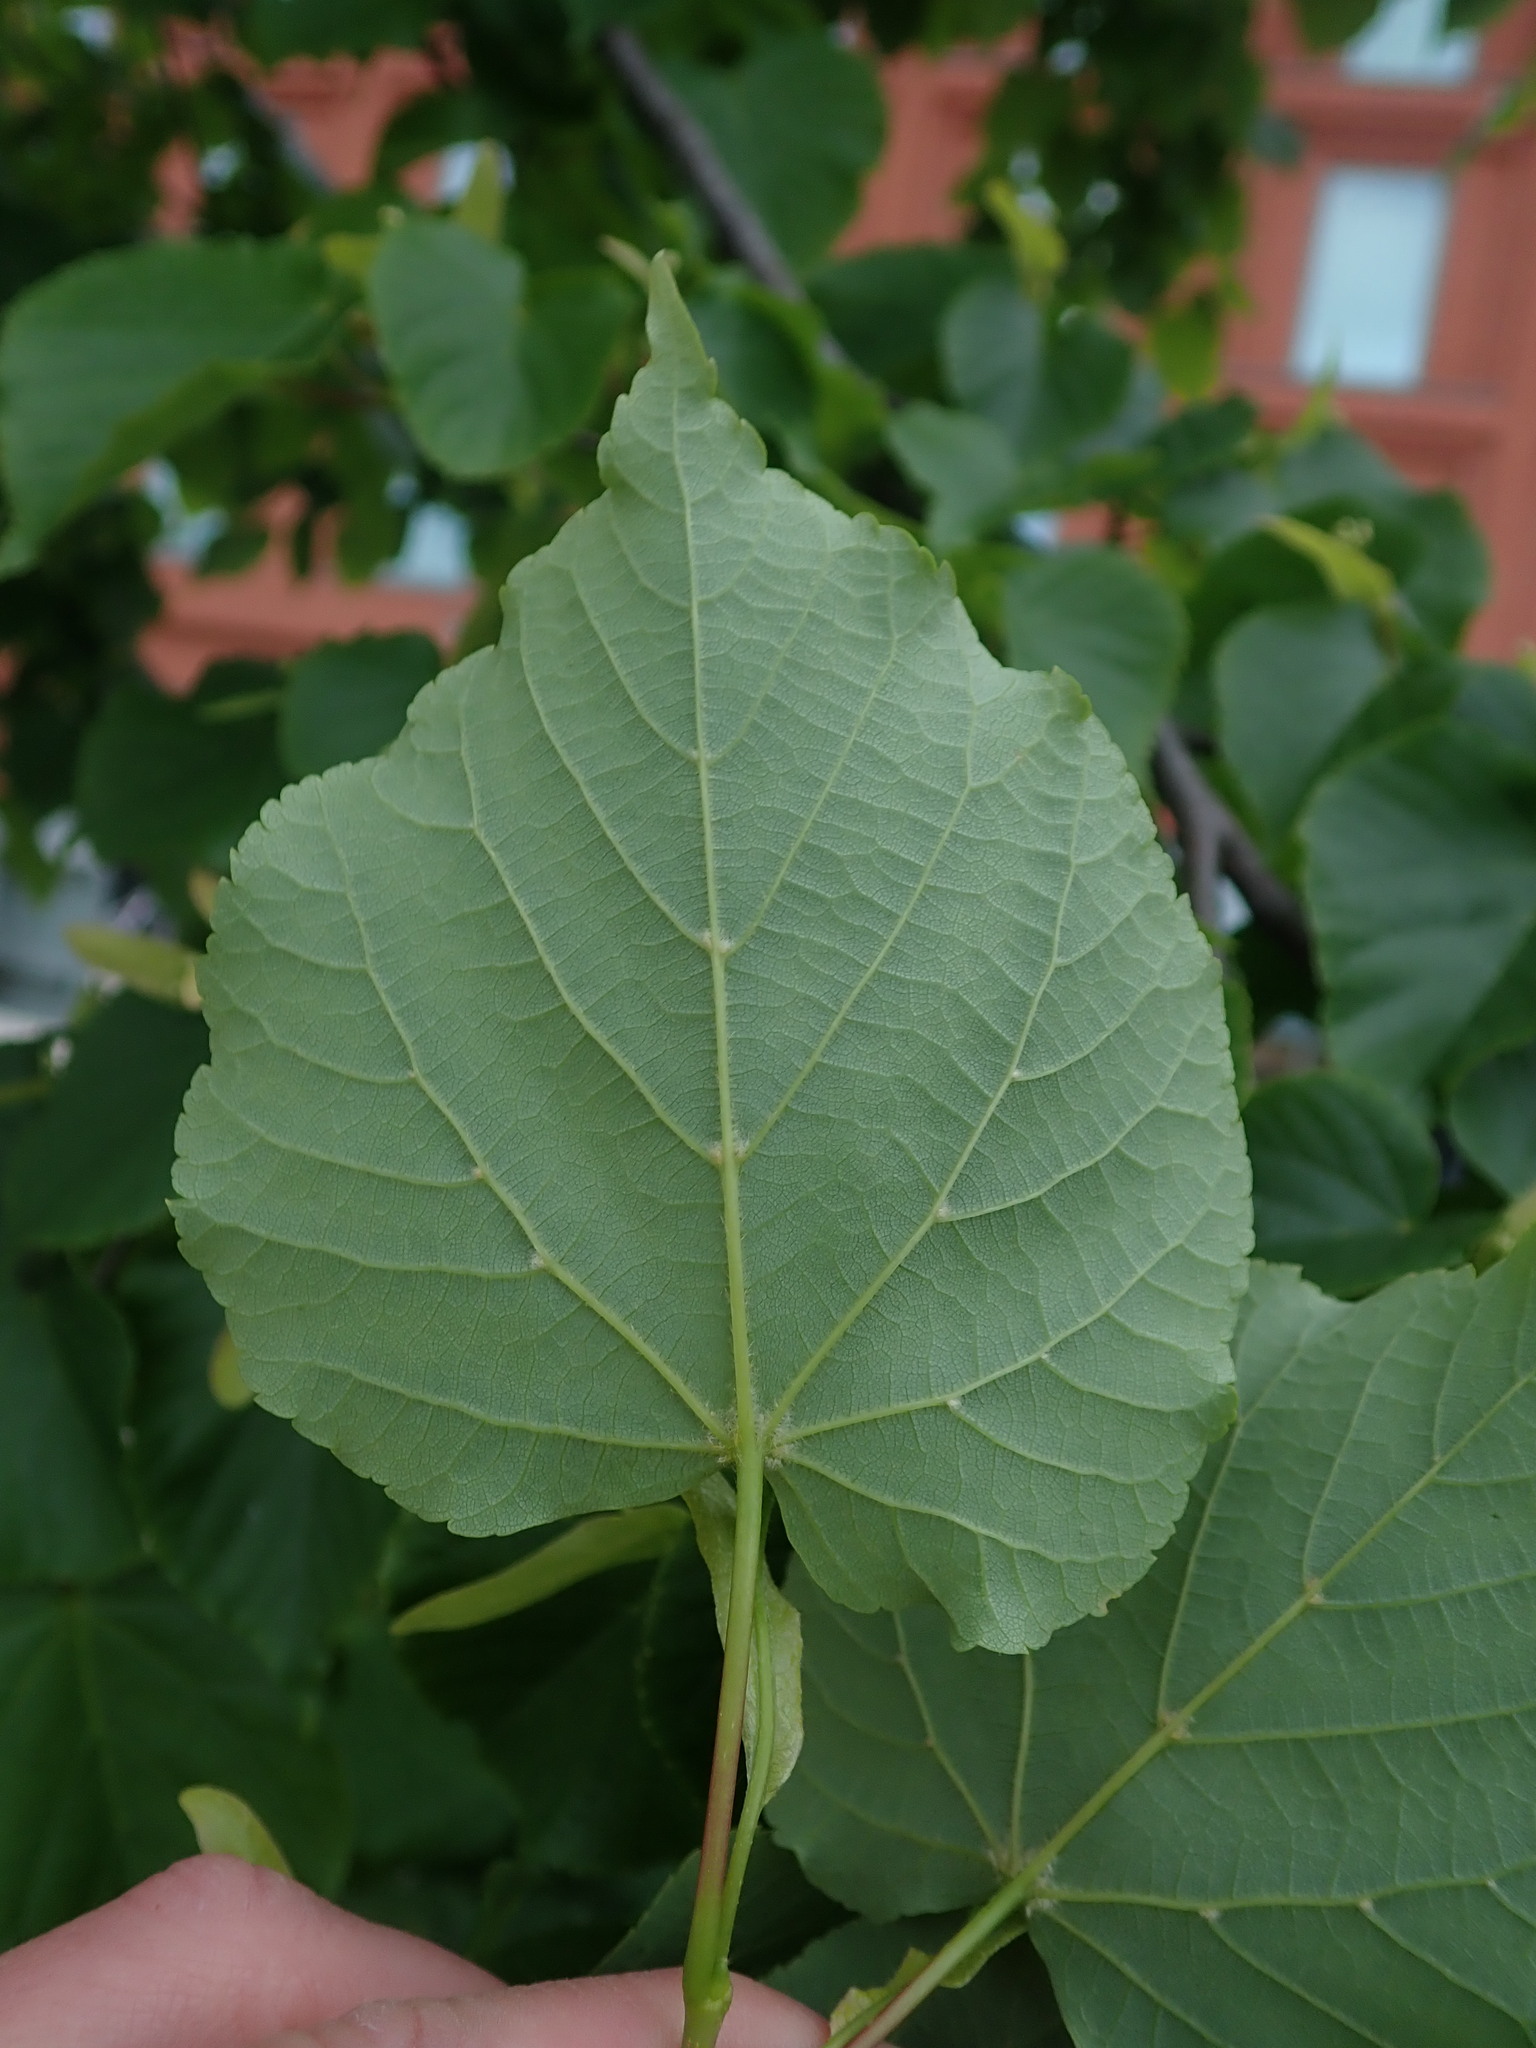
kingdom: Plantae
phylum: Tracheophyta
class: Magnoliopsida
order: Malvales
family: Malvaceae
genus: Tilia
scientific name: Tilia cordata
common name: Small-leaved lime
